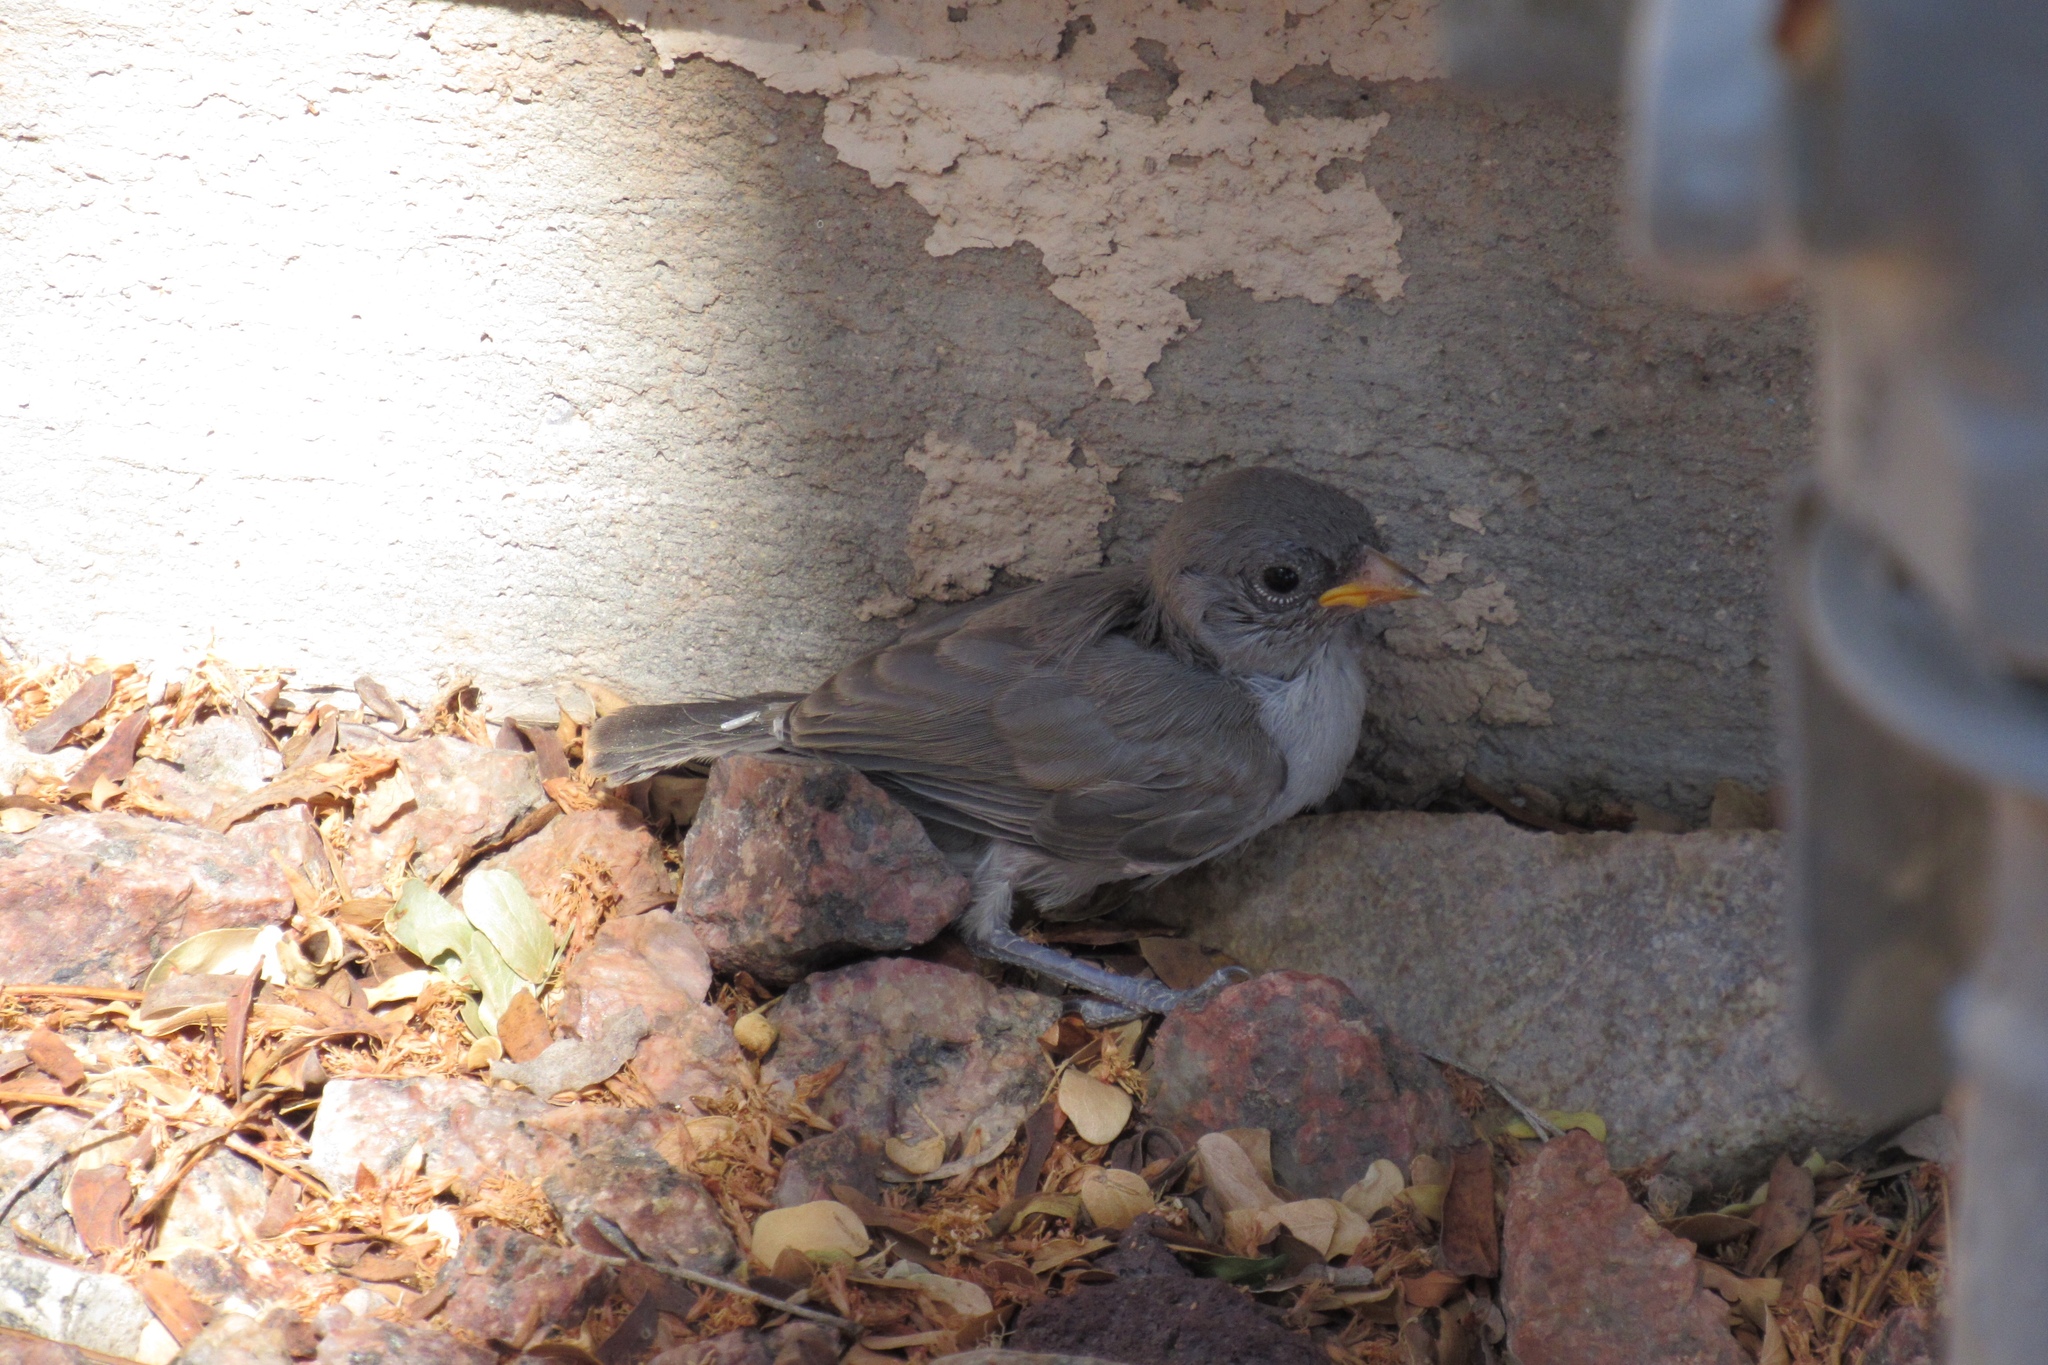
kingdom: Animalia
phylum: Chordata
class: Aves
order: Passeriformes
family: Remizidae
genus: Auriparus
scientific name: Auriparus flaviceps
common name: Verdin
